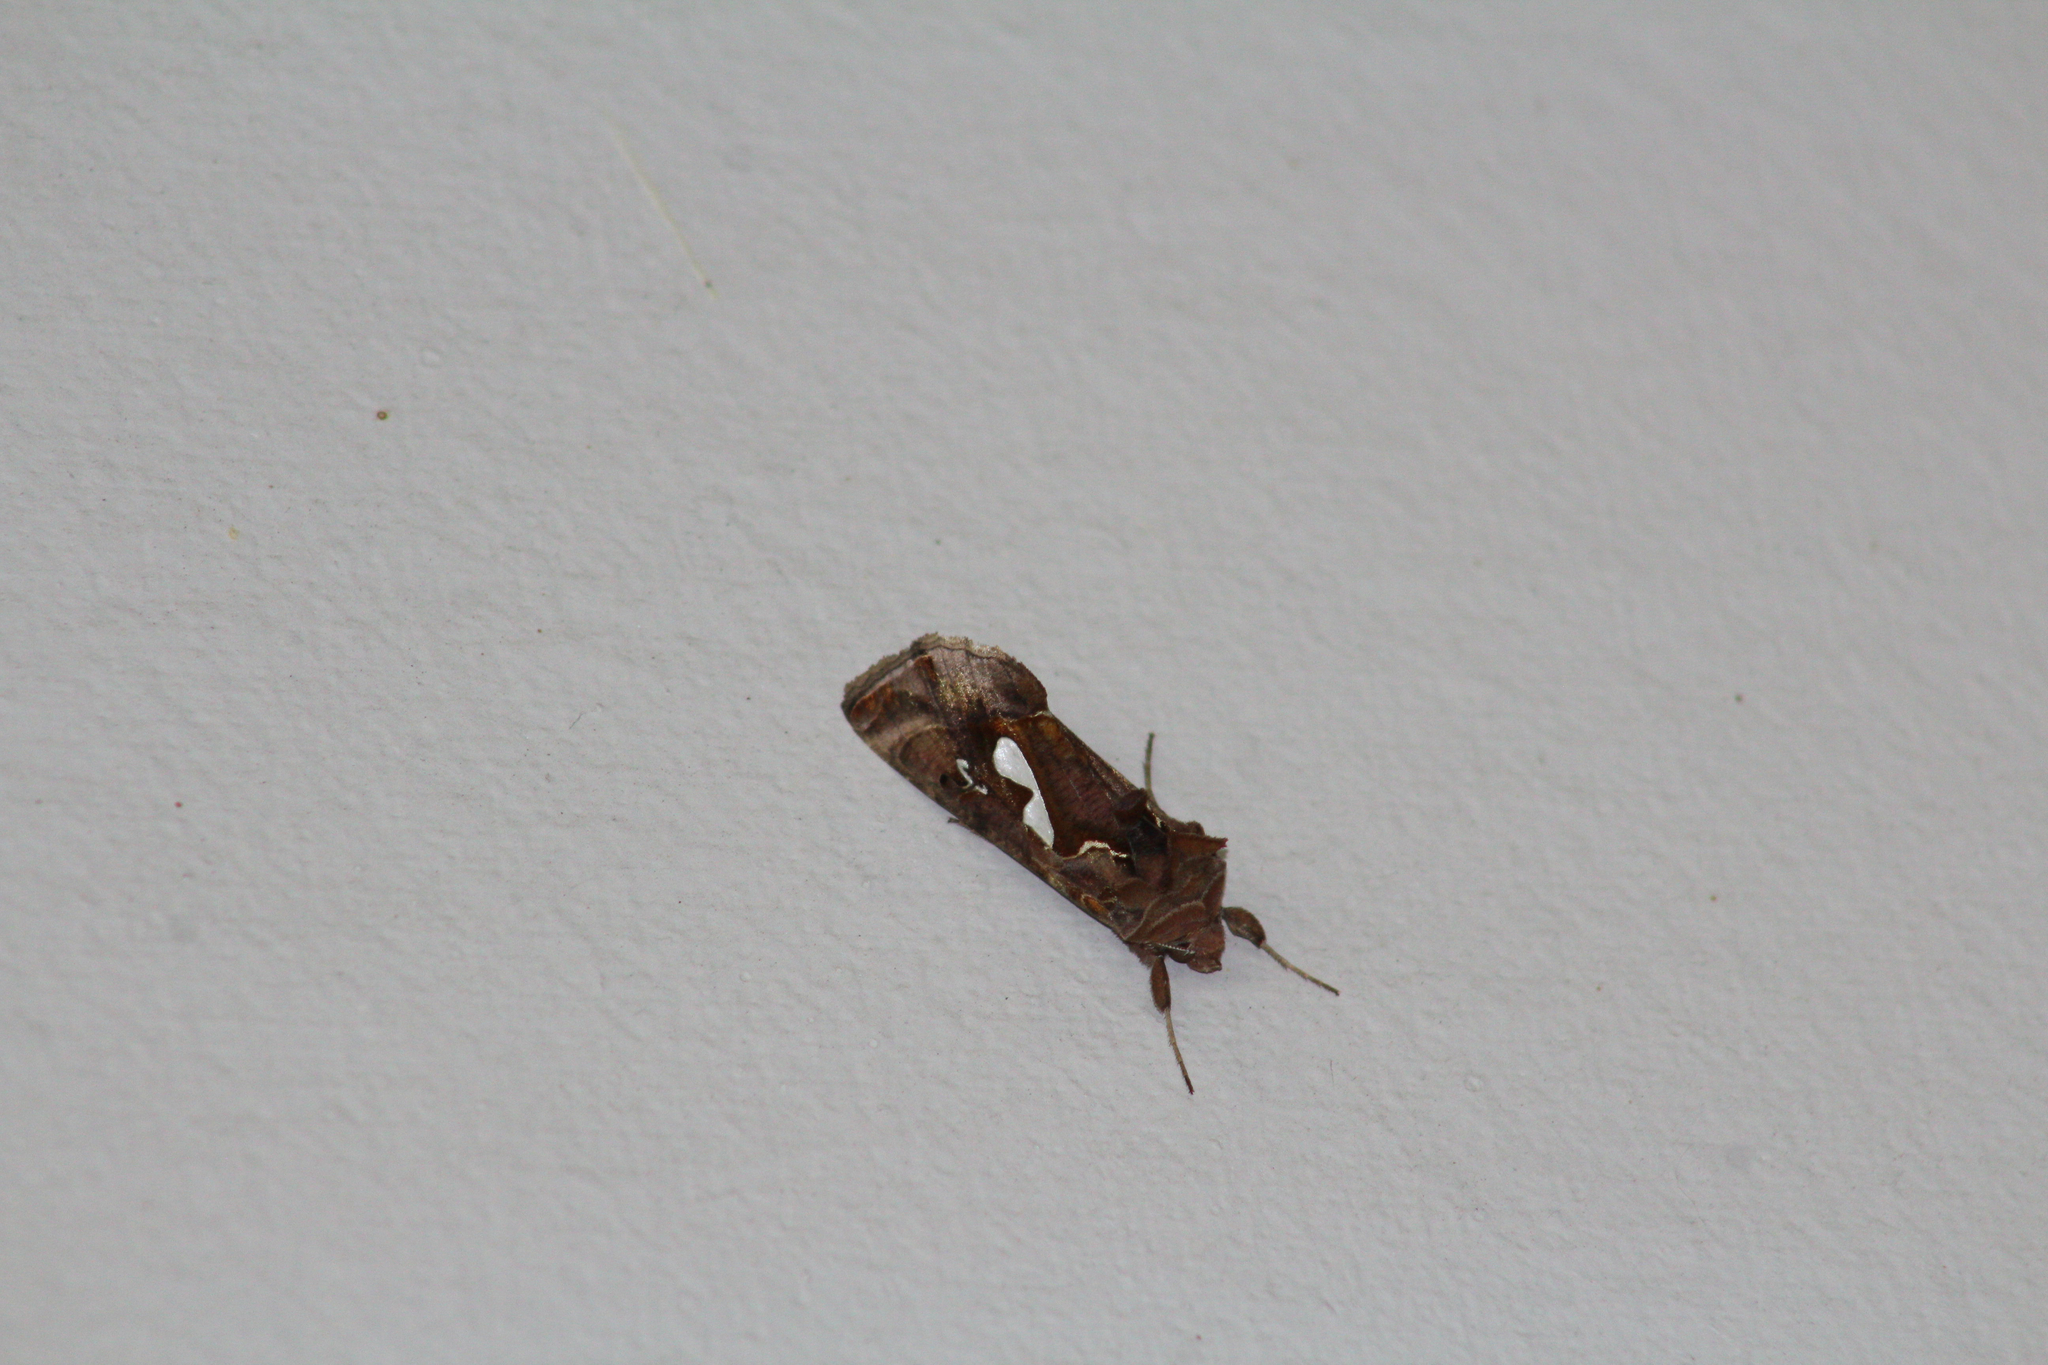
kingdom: Animalia
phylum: Arthropoda
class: Insecta
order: Lepidoptera
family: Noctuidae
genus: Megalographa
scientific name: Megalographa biloba
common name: Cutworm
